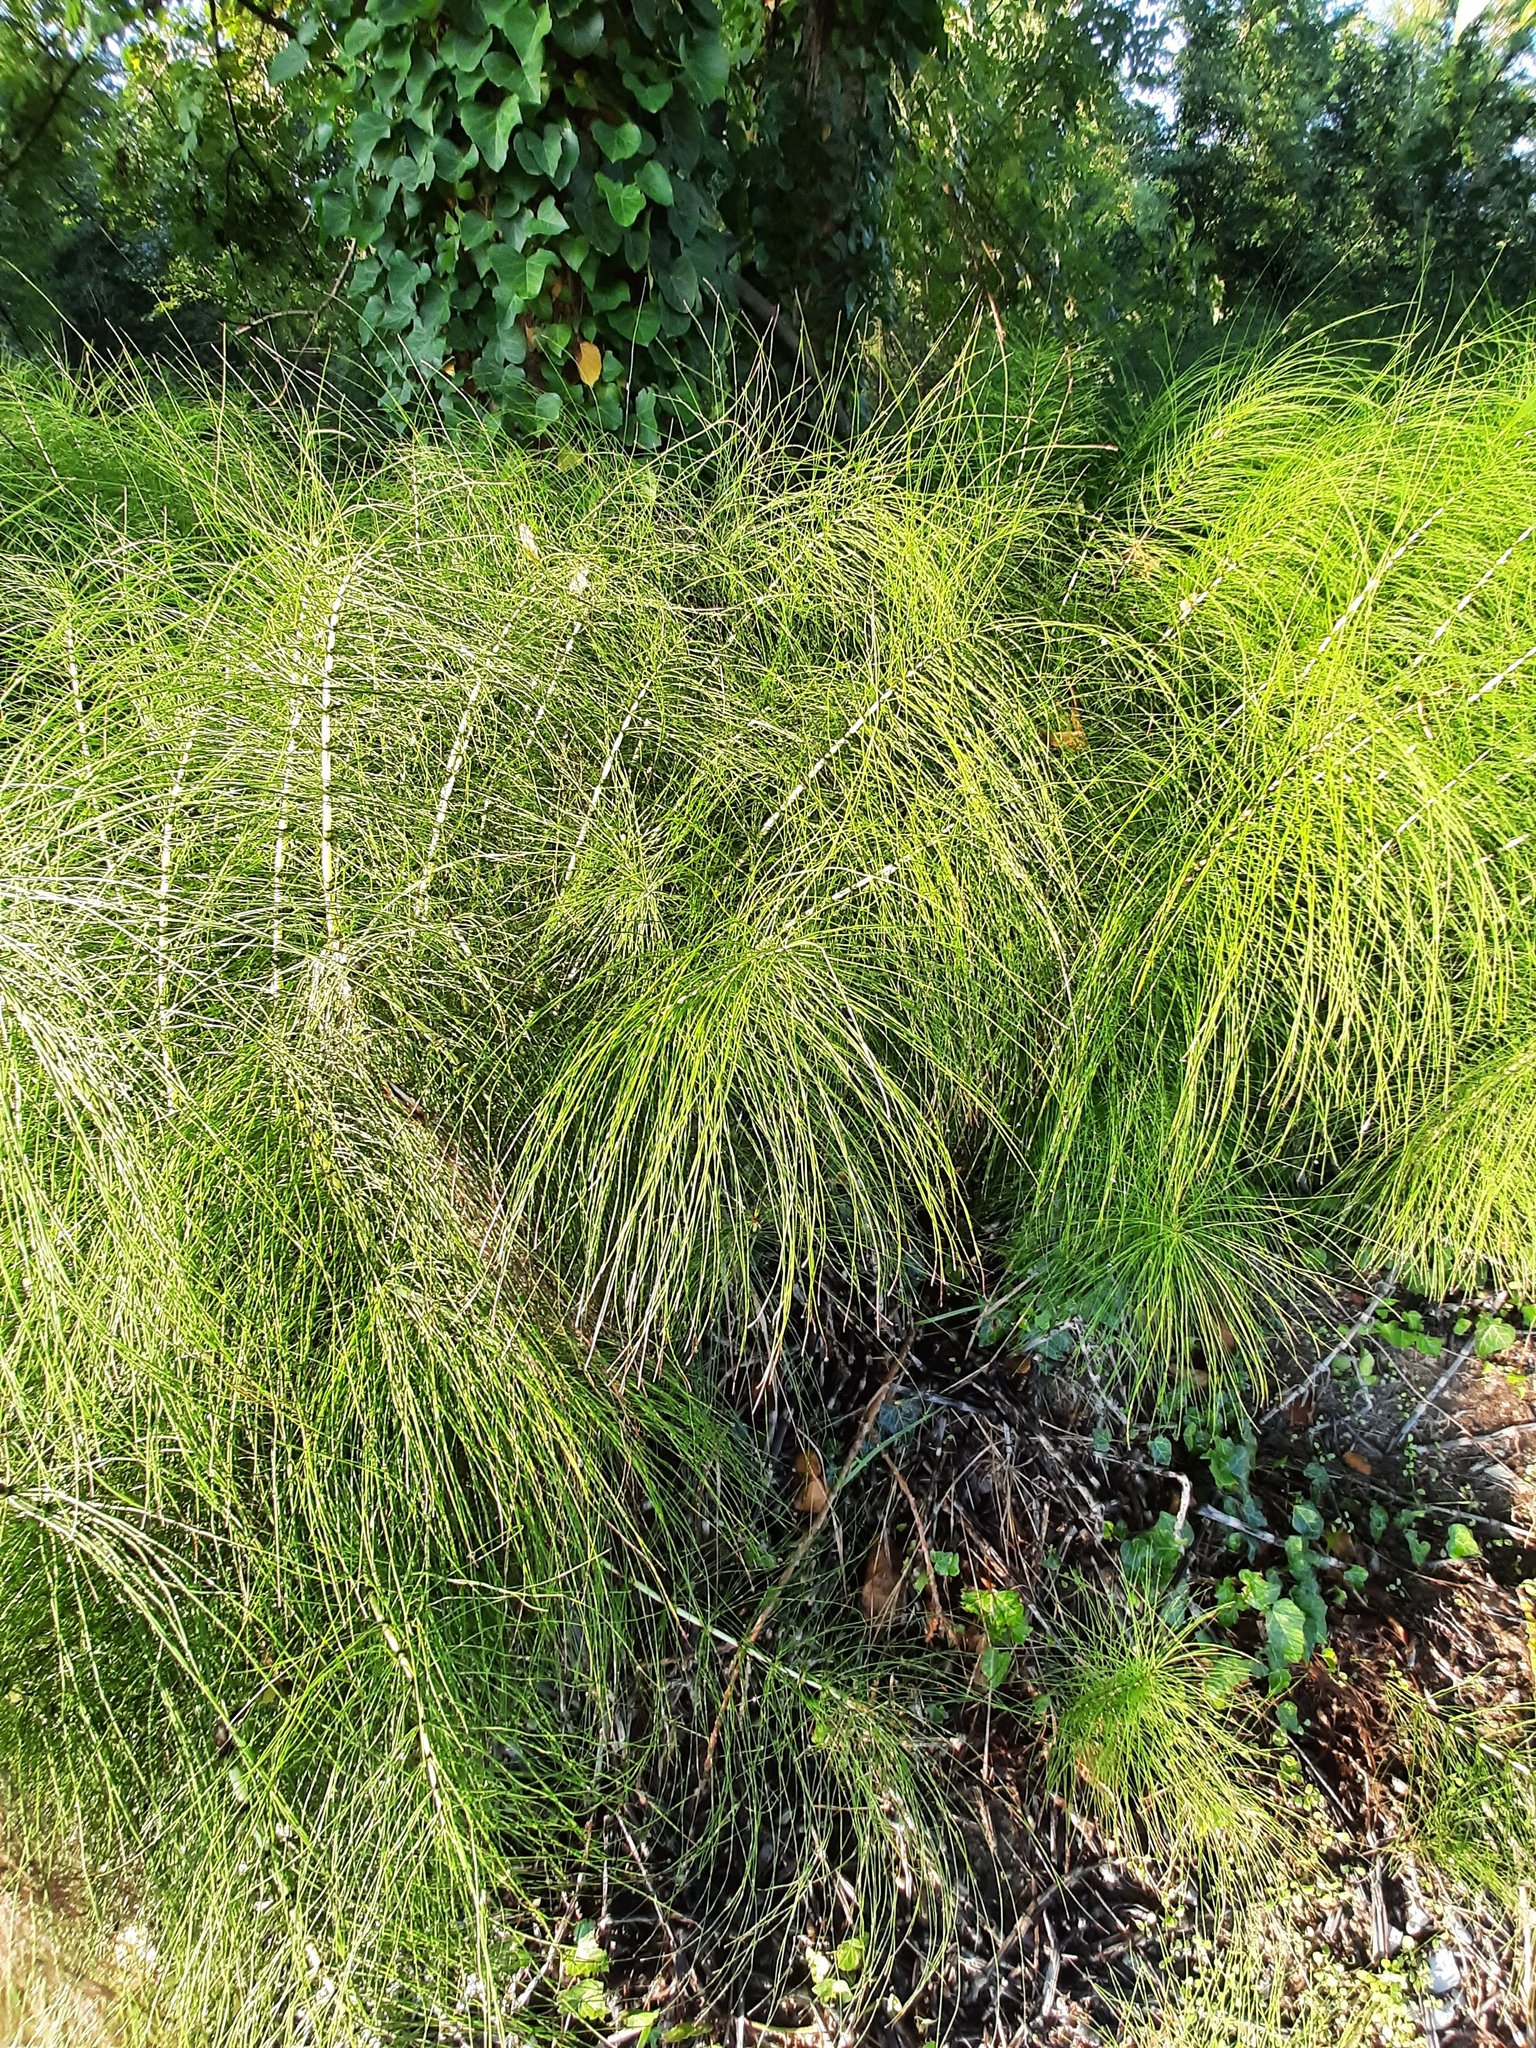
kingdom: Plantae
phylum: Tracheophyta
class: Polypodiopsida
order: Equisetales
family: Equisetaceae
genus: Equisetum
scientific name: Equisetum telmateia
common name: Great horsetail
